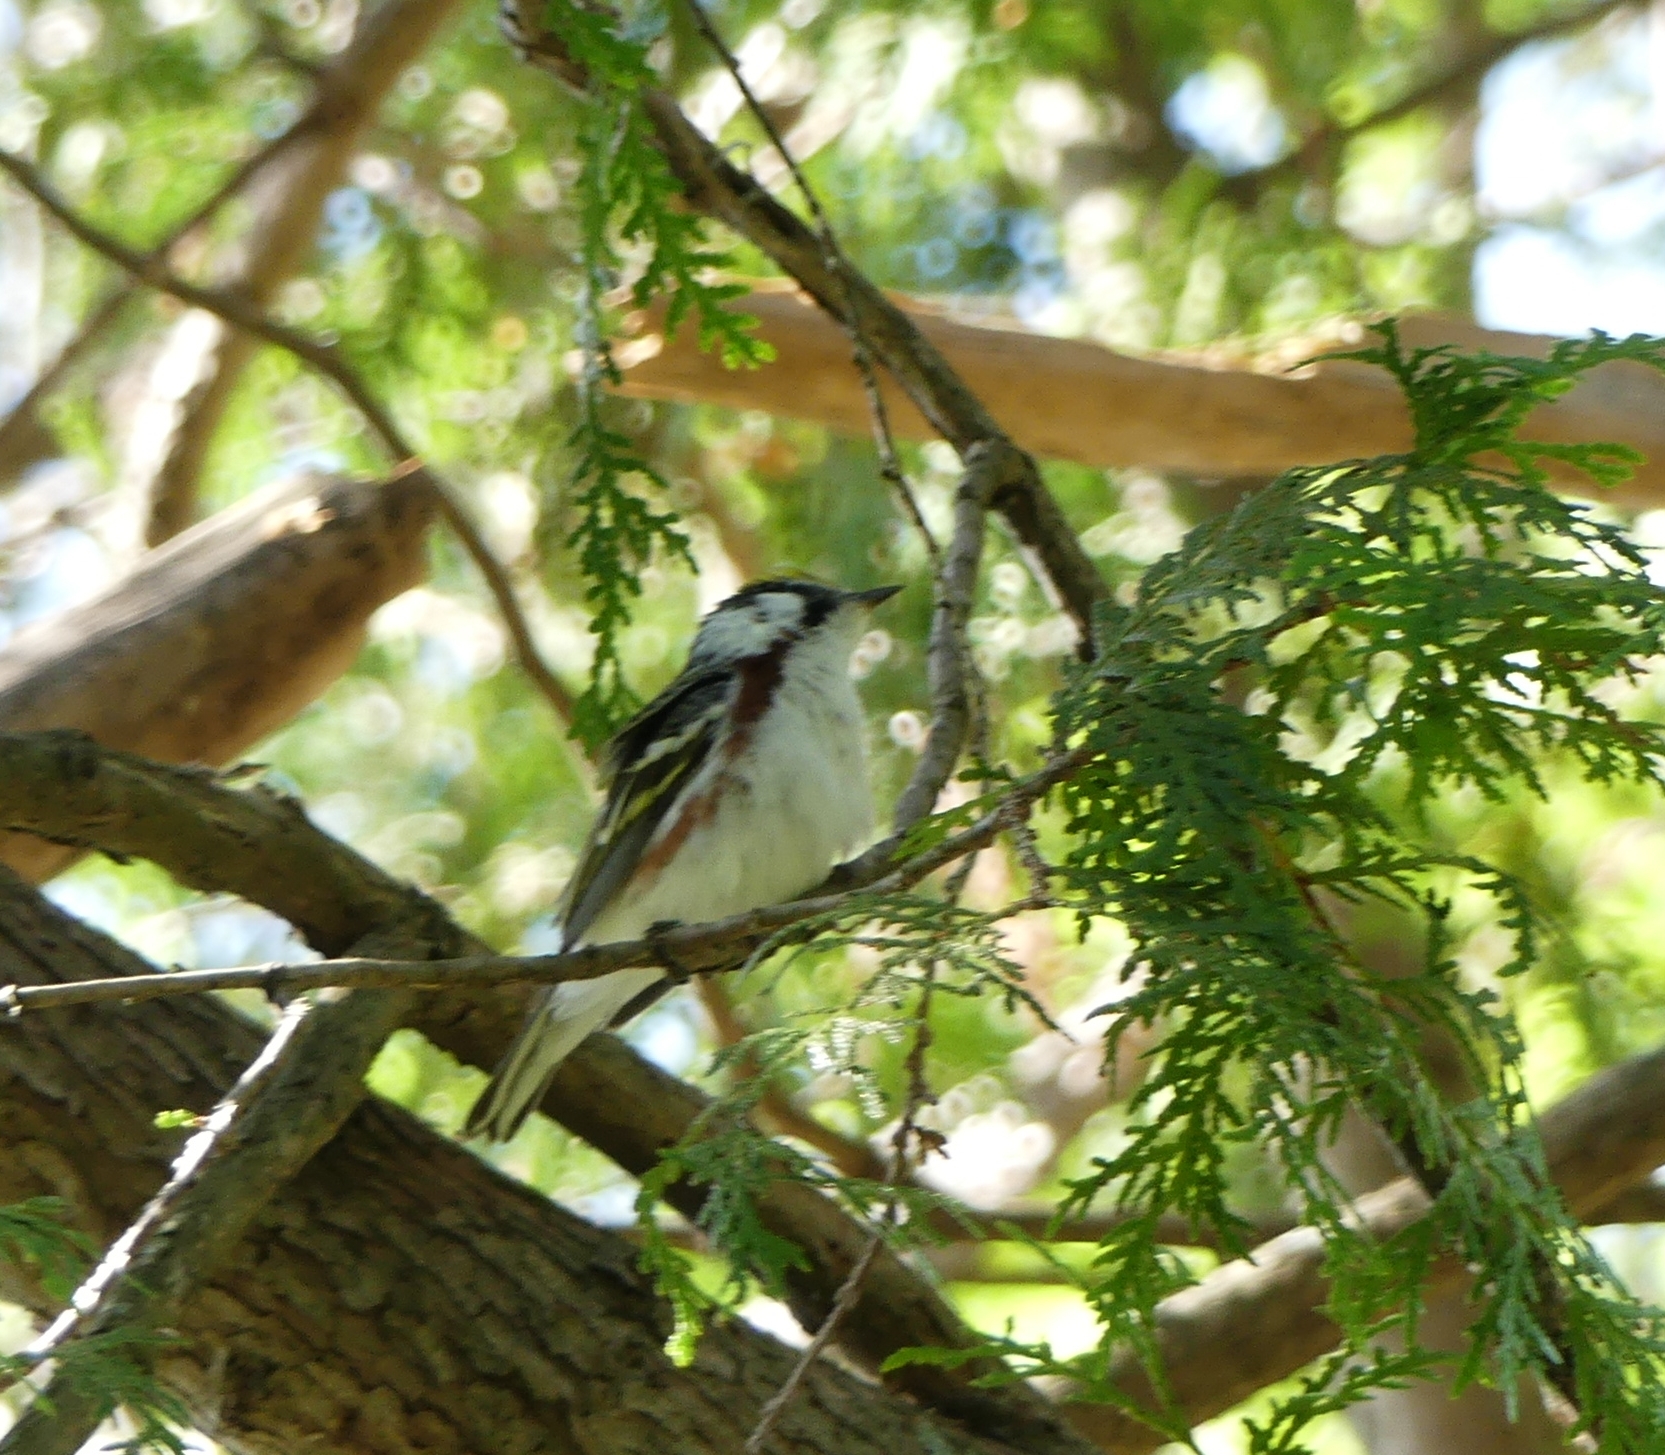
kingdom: Animalia
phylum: Chordata
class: Aves
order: Passeriformes
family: Parulidae
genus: Setophaga
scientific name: Setophaga pensylvanica
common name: Chestnut-sided warbler
